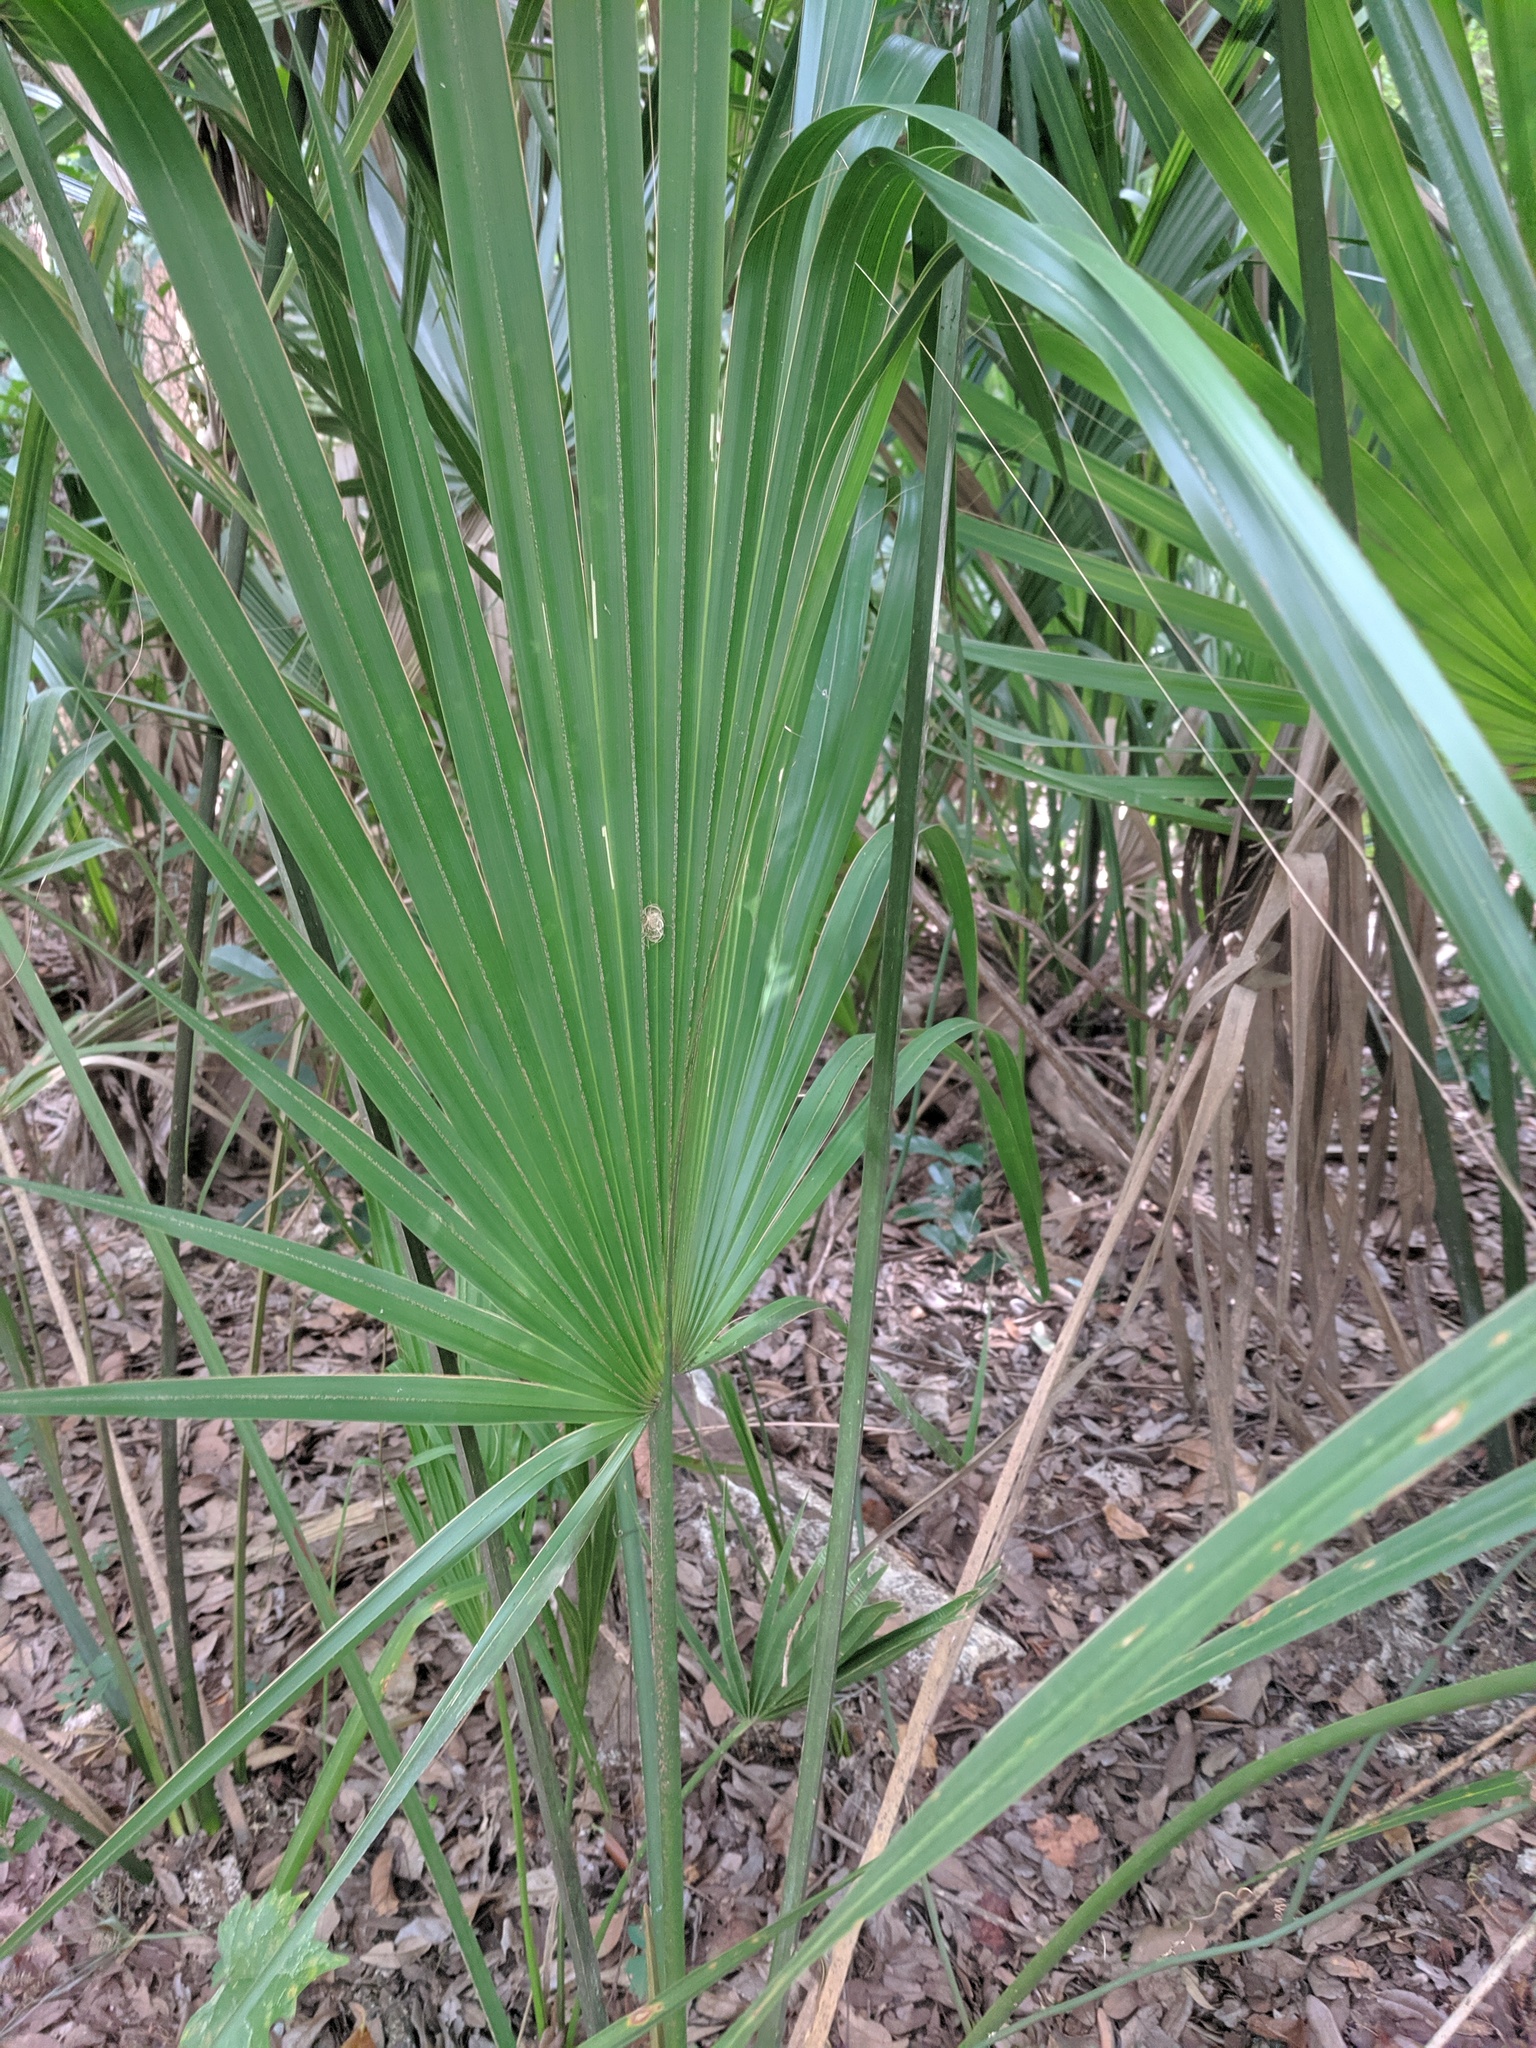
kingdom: Plantae
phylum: Tracheophyta
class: Liliopsida
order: Arecales
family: Arecaceae
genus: Sabal
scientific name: Sabal palmetto
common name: Blue palmetto
